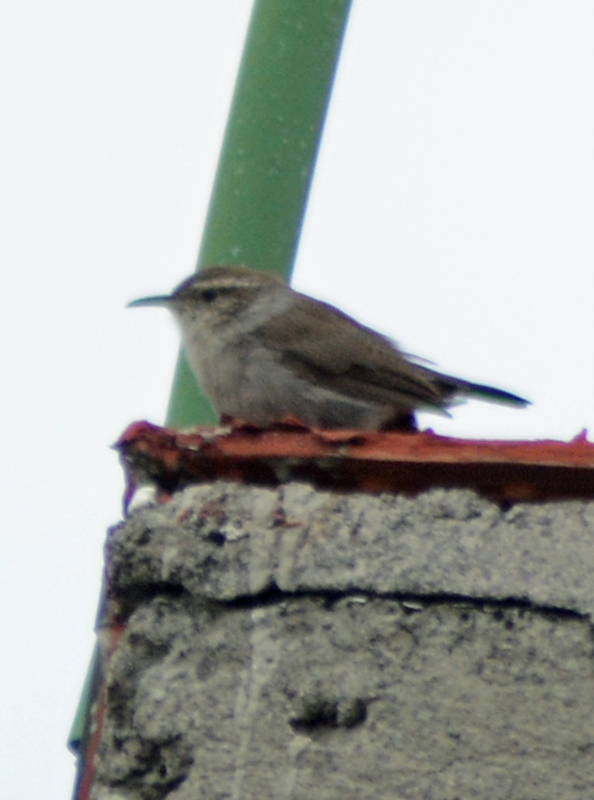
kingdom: Animalia
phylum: Chordata
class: Aves
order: Passeriformes
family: Troglodytidae
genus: Thryomanes
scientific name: Thryomanes bewickii
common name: Bewick's wren
